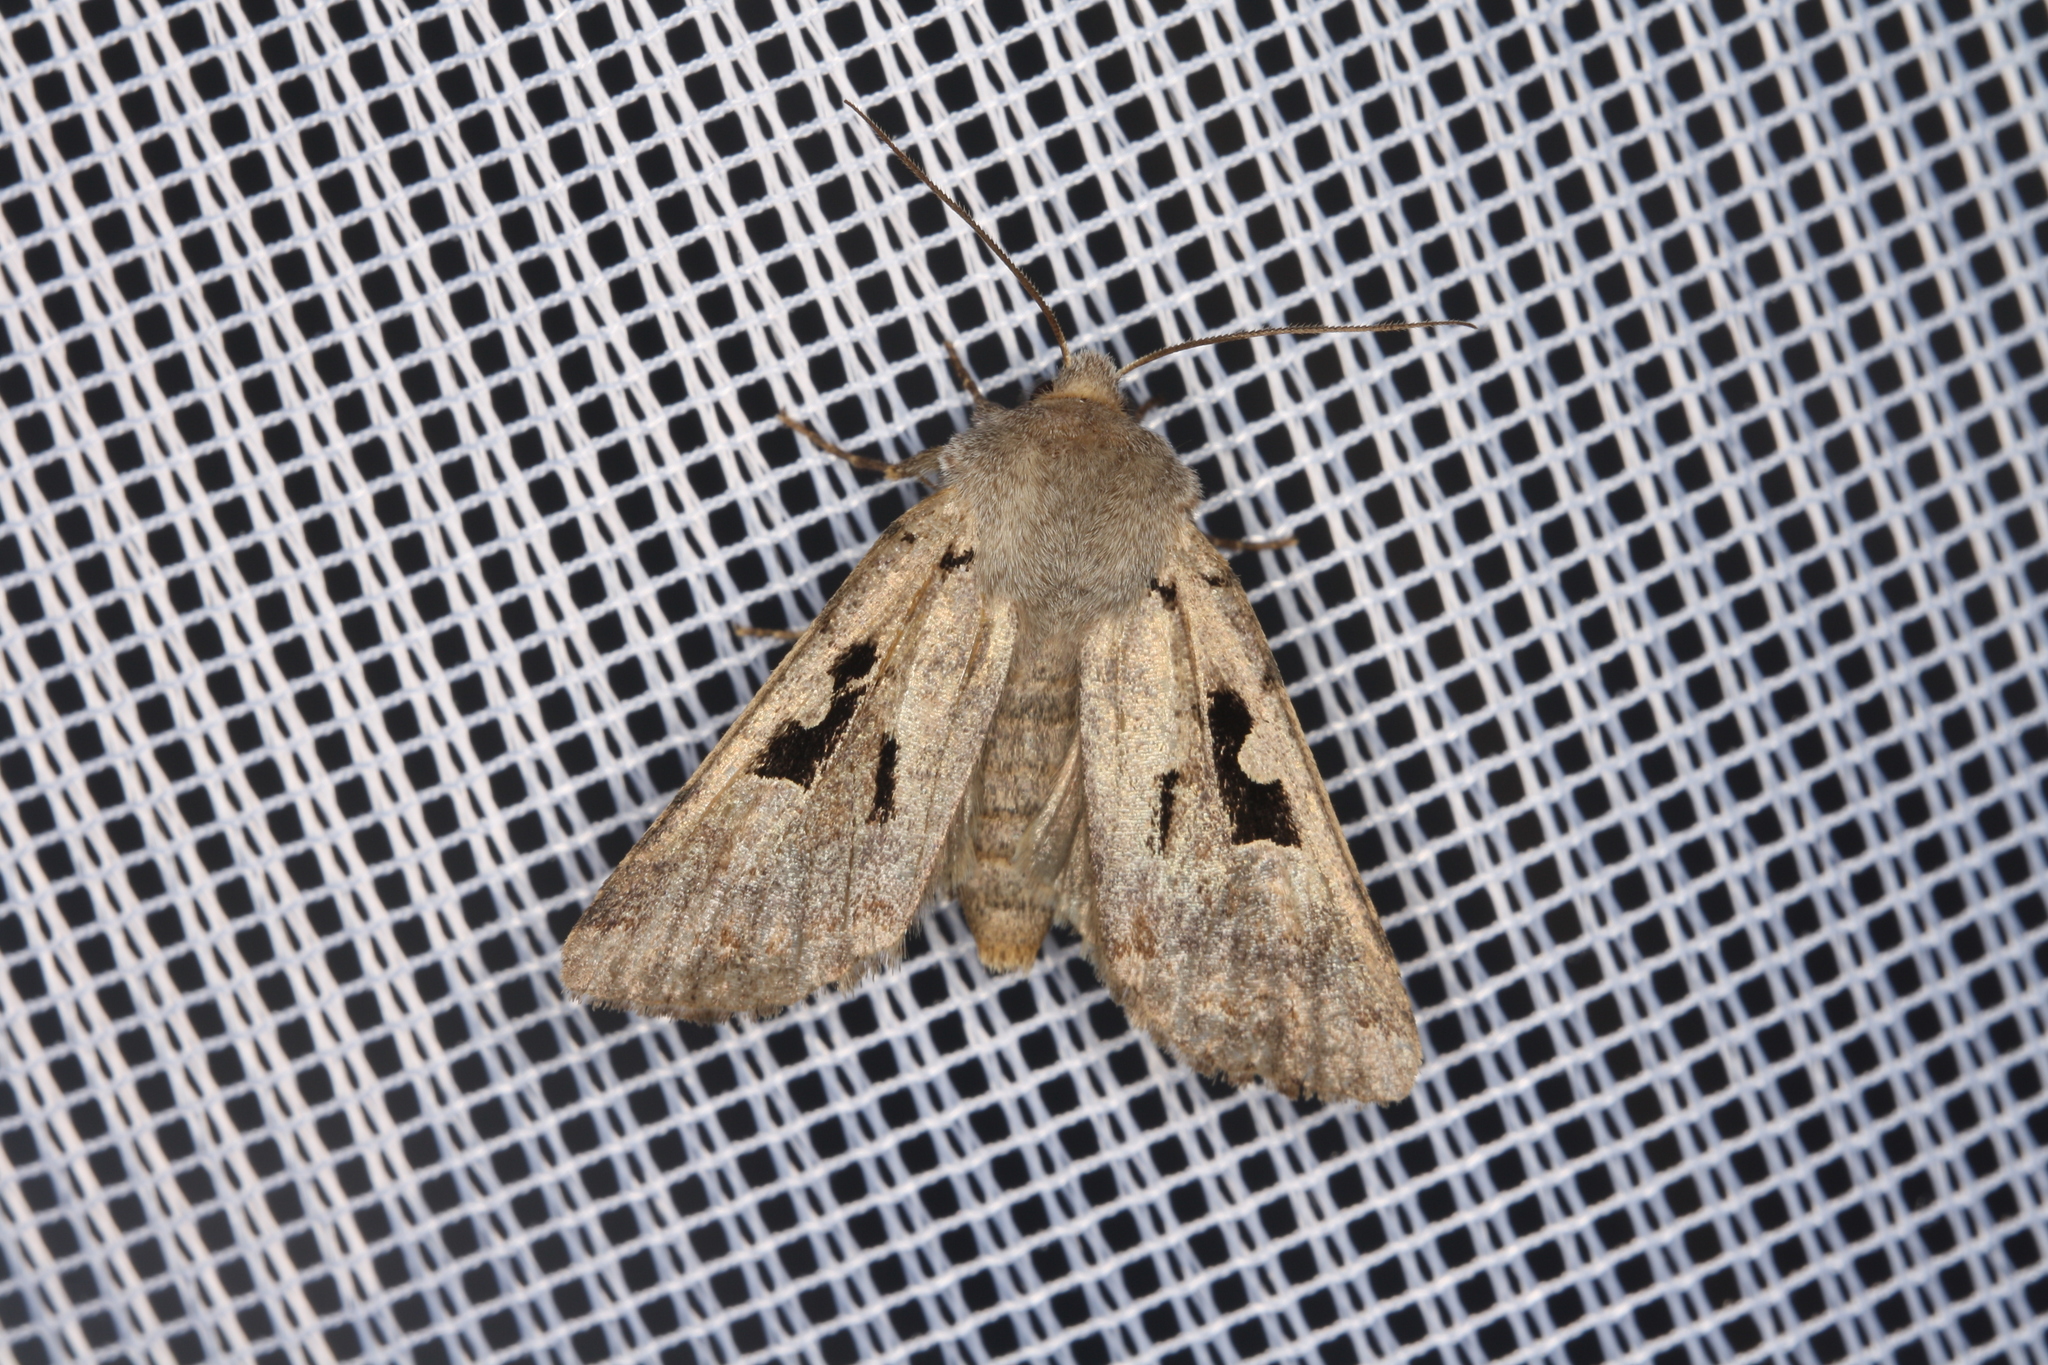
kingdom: Animalia
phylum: Arthropoda
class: Insecta
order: Lepidoptera
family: Noctuidae
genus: Orthosia
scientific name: Orthosia gothica
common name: Hebrew character
